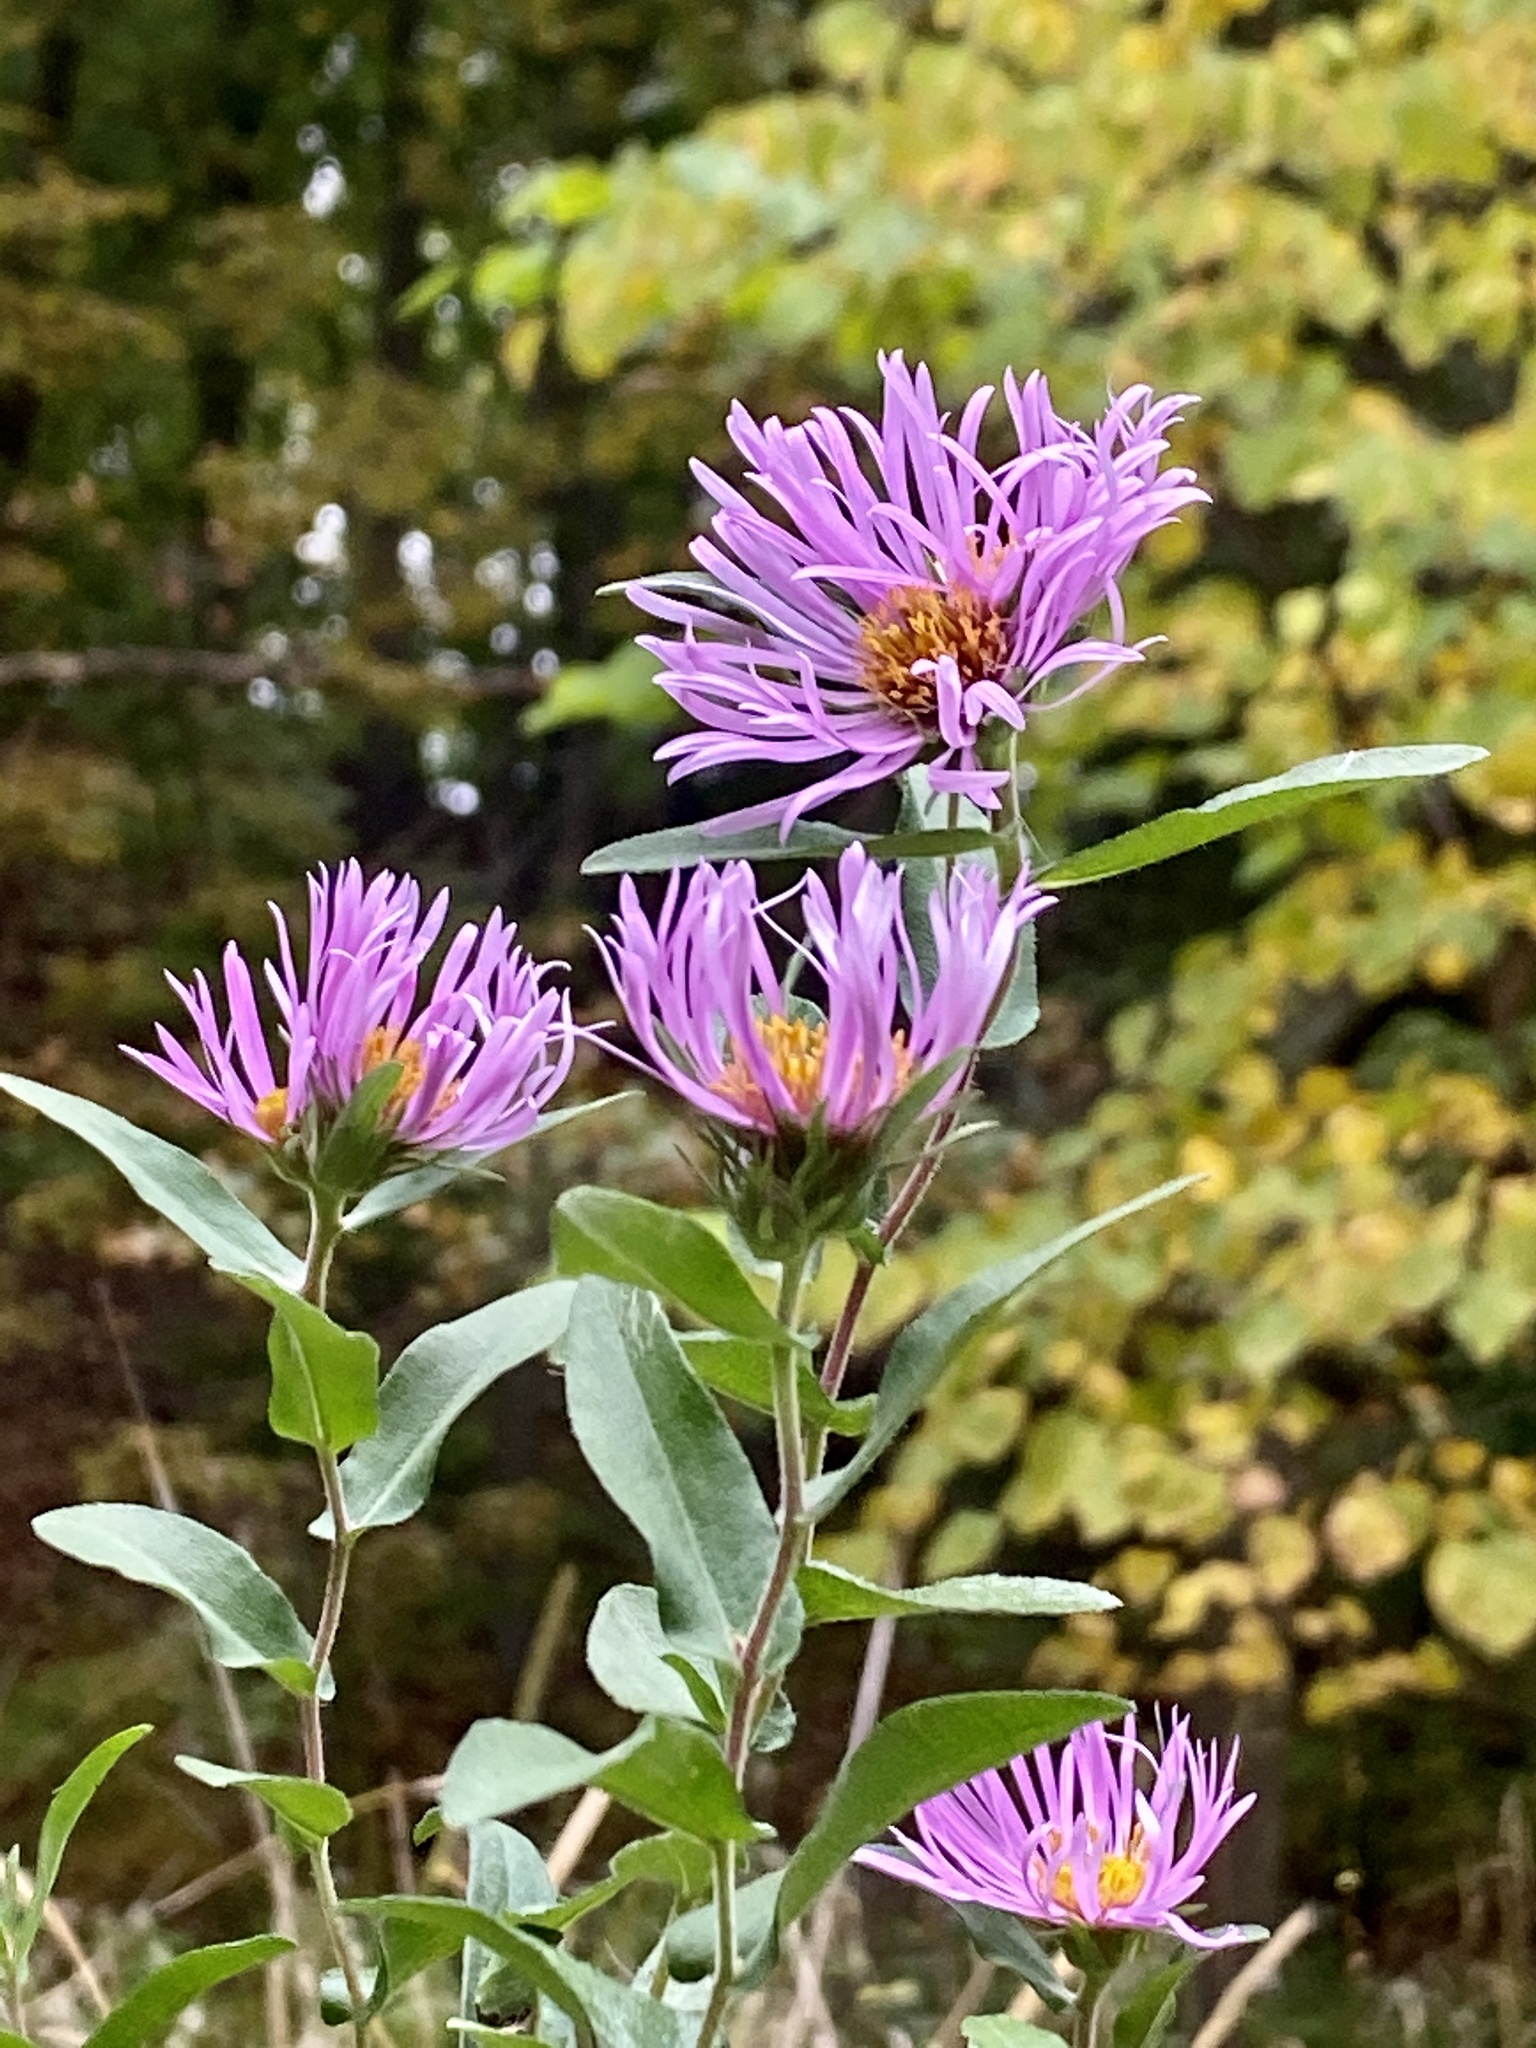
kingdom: Plantae
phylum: Tracheophyta
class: Magnoliopsida
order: Asterales
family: Asteraceae
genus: Symphyotrichum
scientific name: Symphyotrichum novae-angliae
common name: Michaelmas daisy
